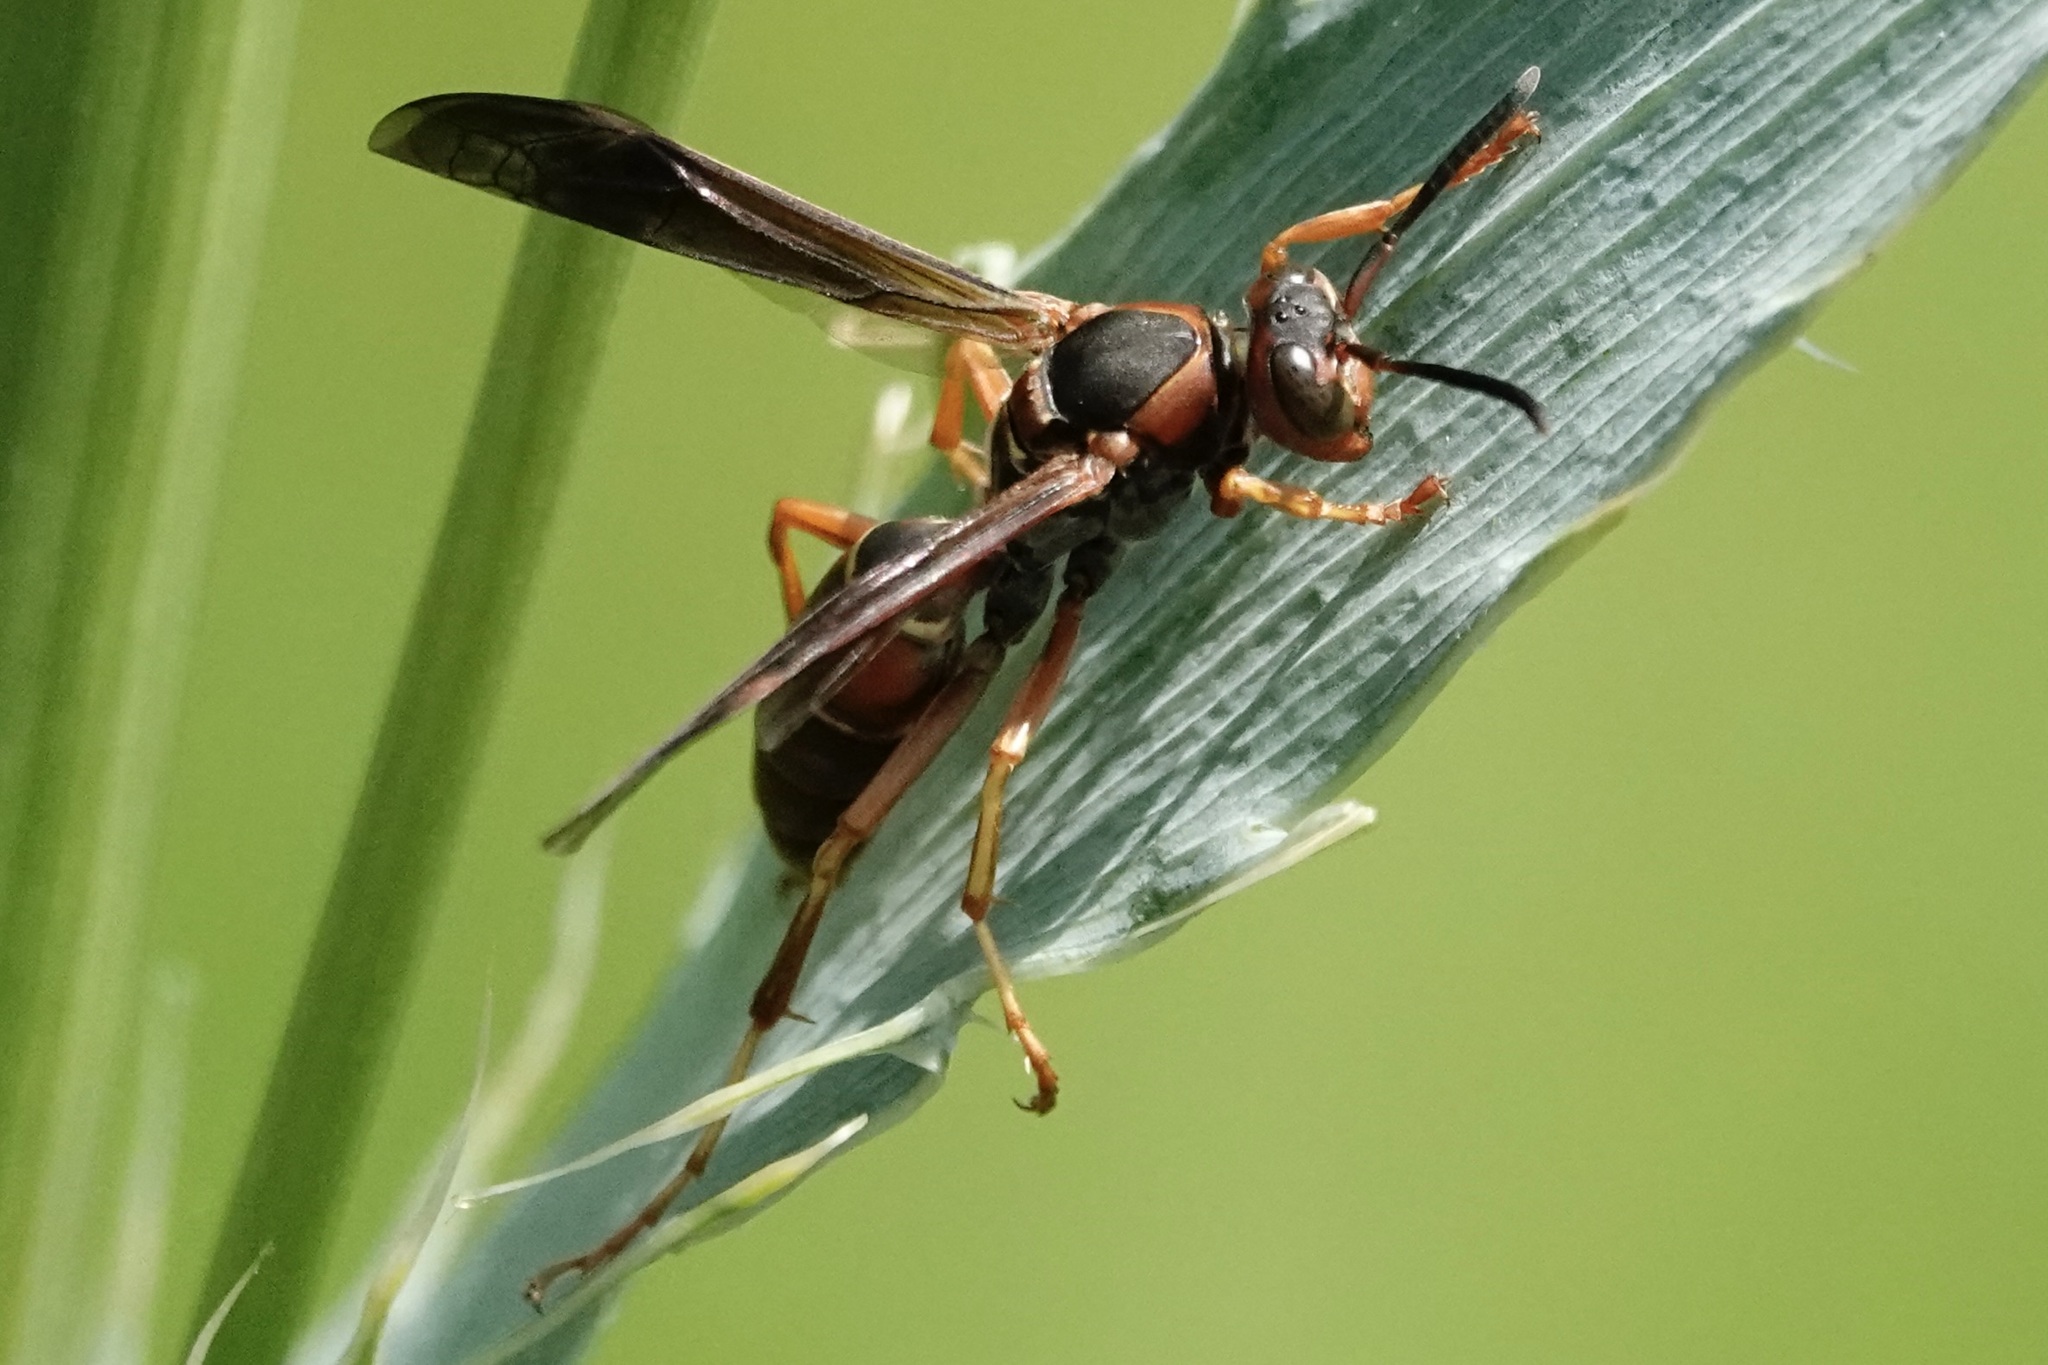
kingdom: Animalia
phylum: Arthropoda
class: Insecta
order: Hymenoptera
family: Eumenidae
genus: Polistes
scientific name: Polistes fuscatus
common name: Dark paper wasp
